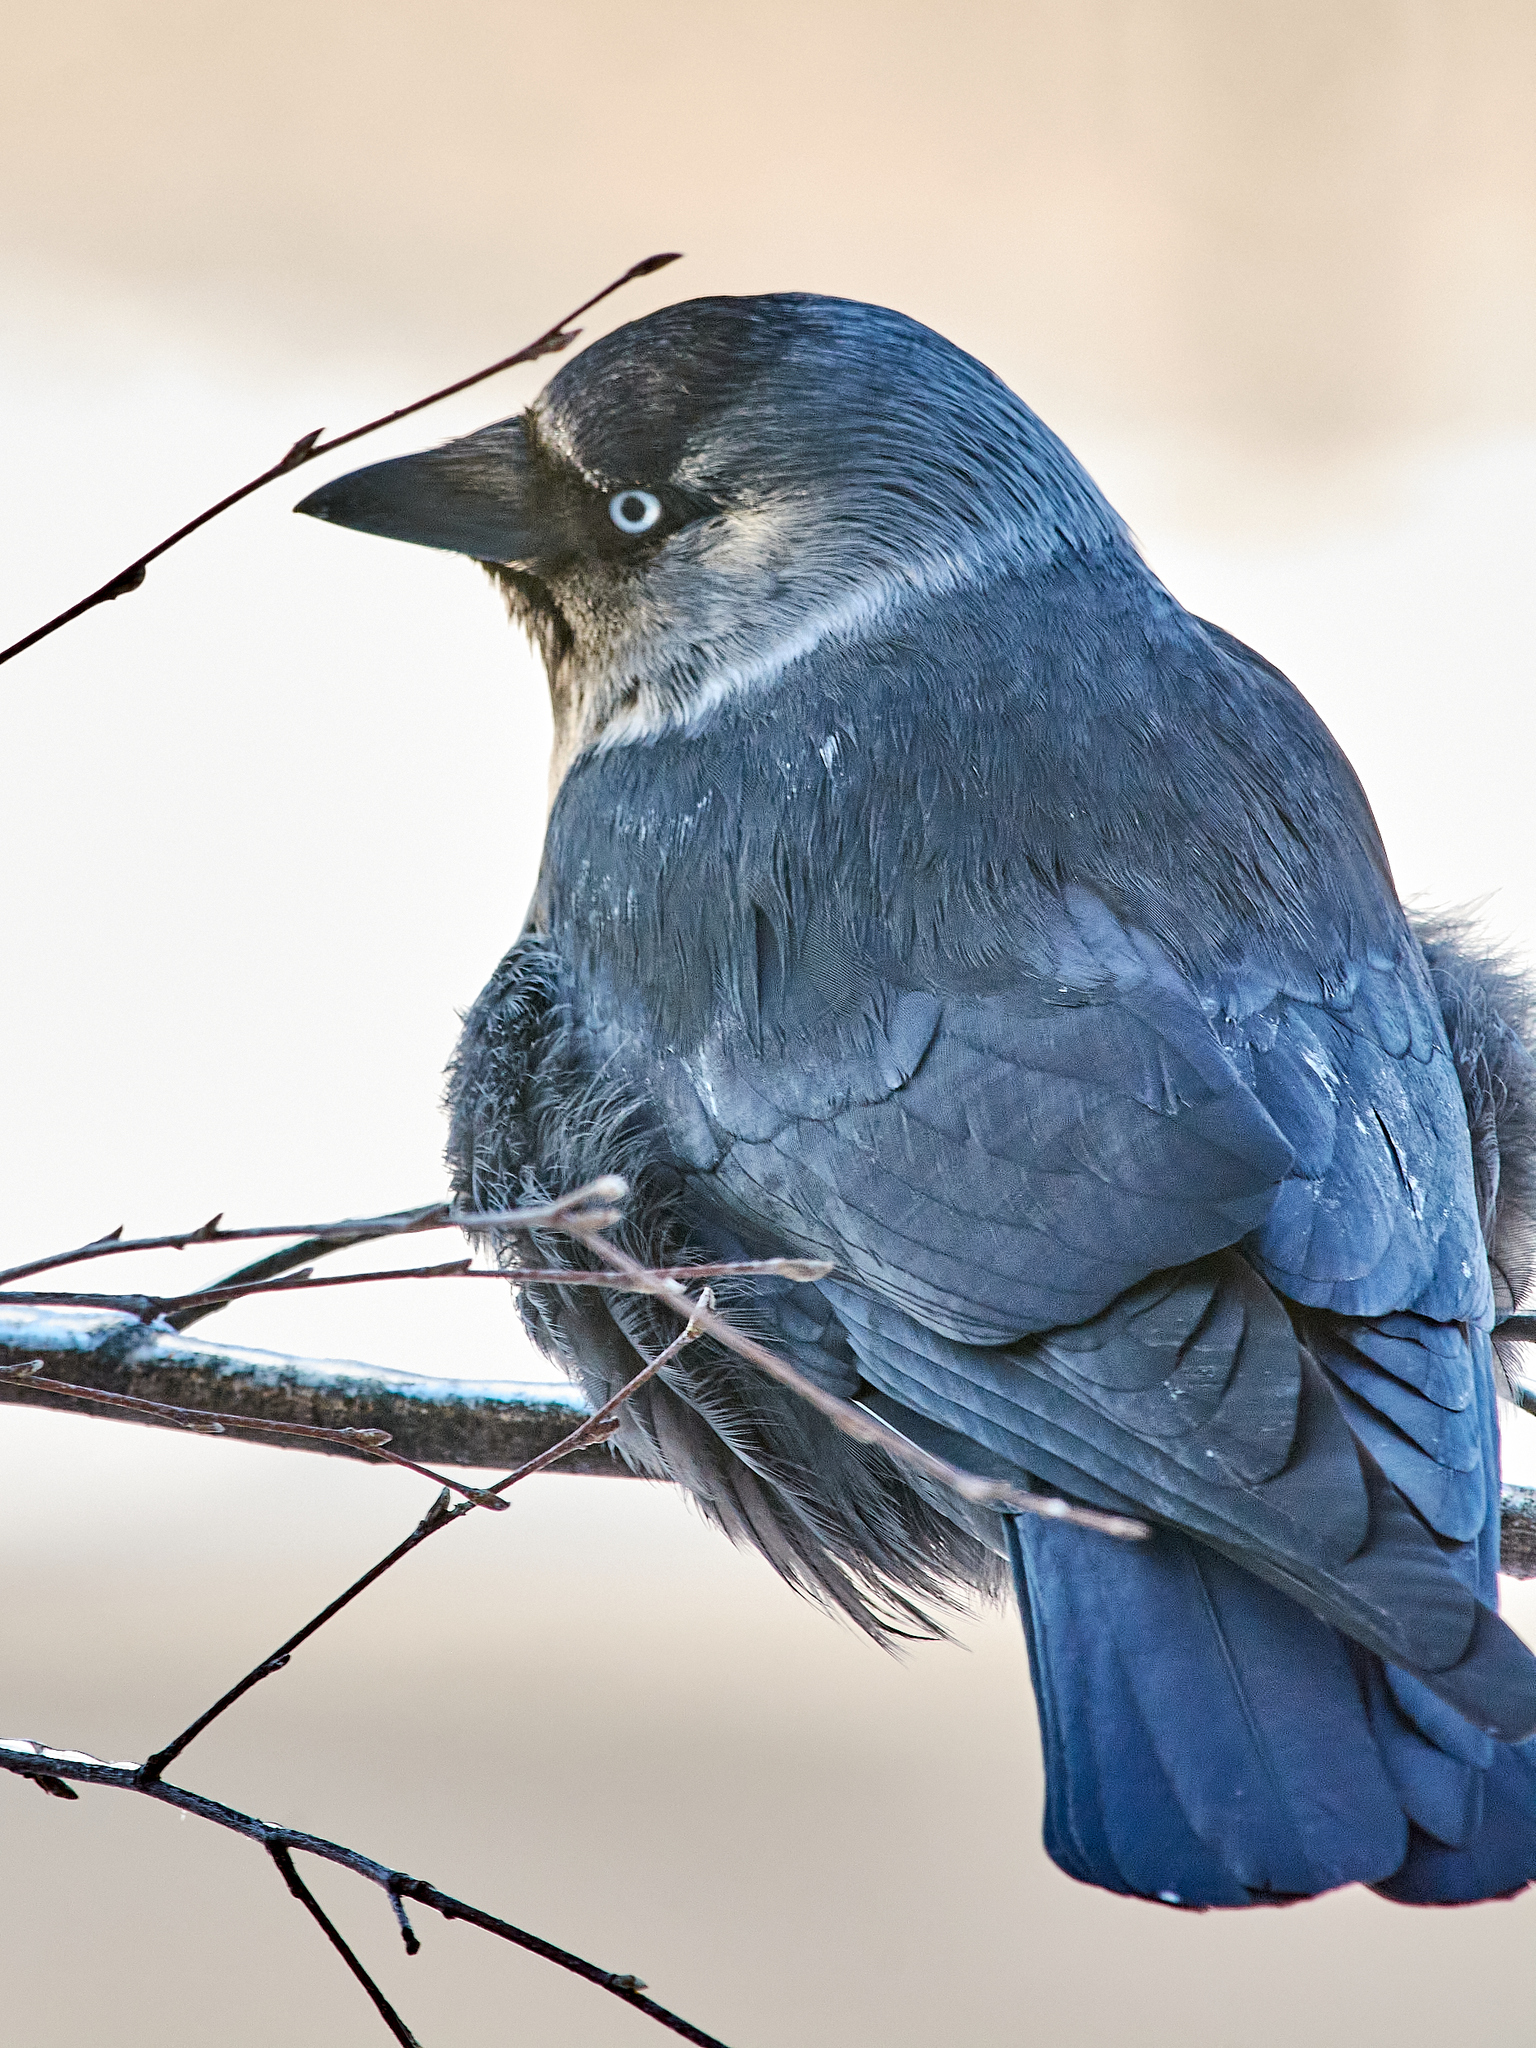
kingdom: Animalia
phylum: Chordata
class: Aves
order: Passeriformes
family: Corvidae
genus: Coloeus
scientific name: Coloeus monedula
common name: Western jackdaw
